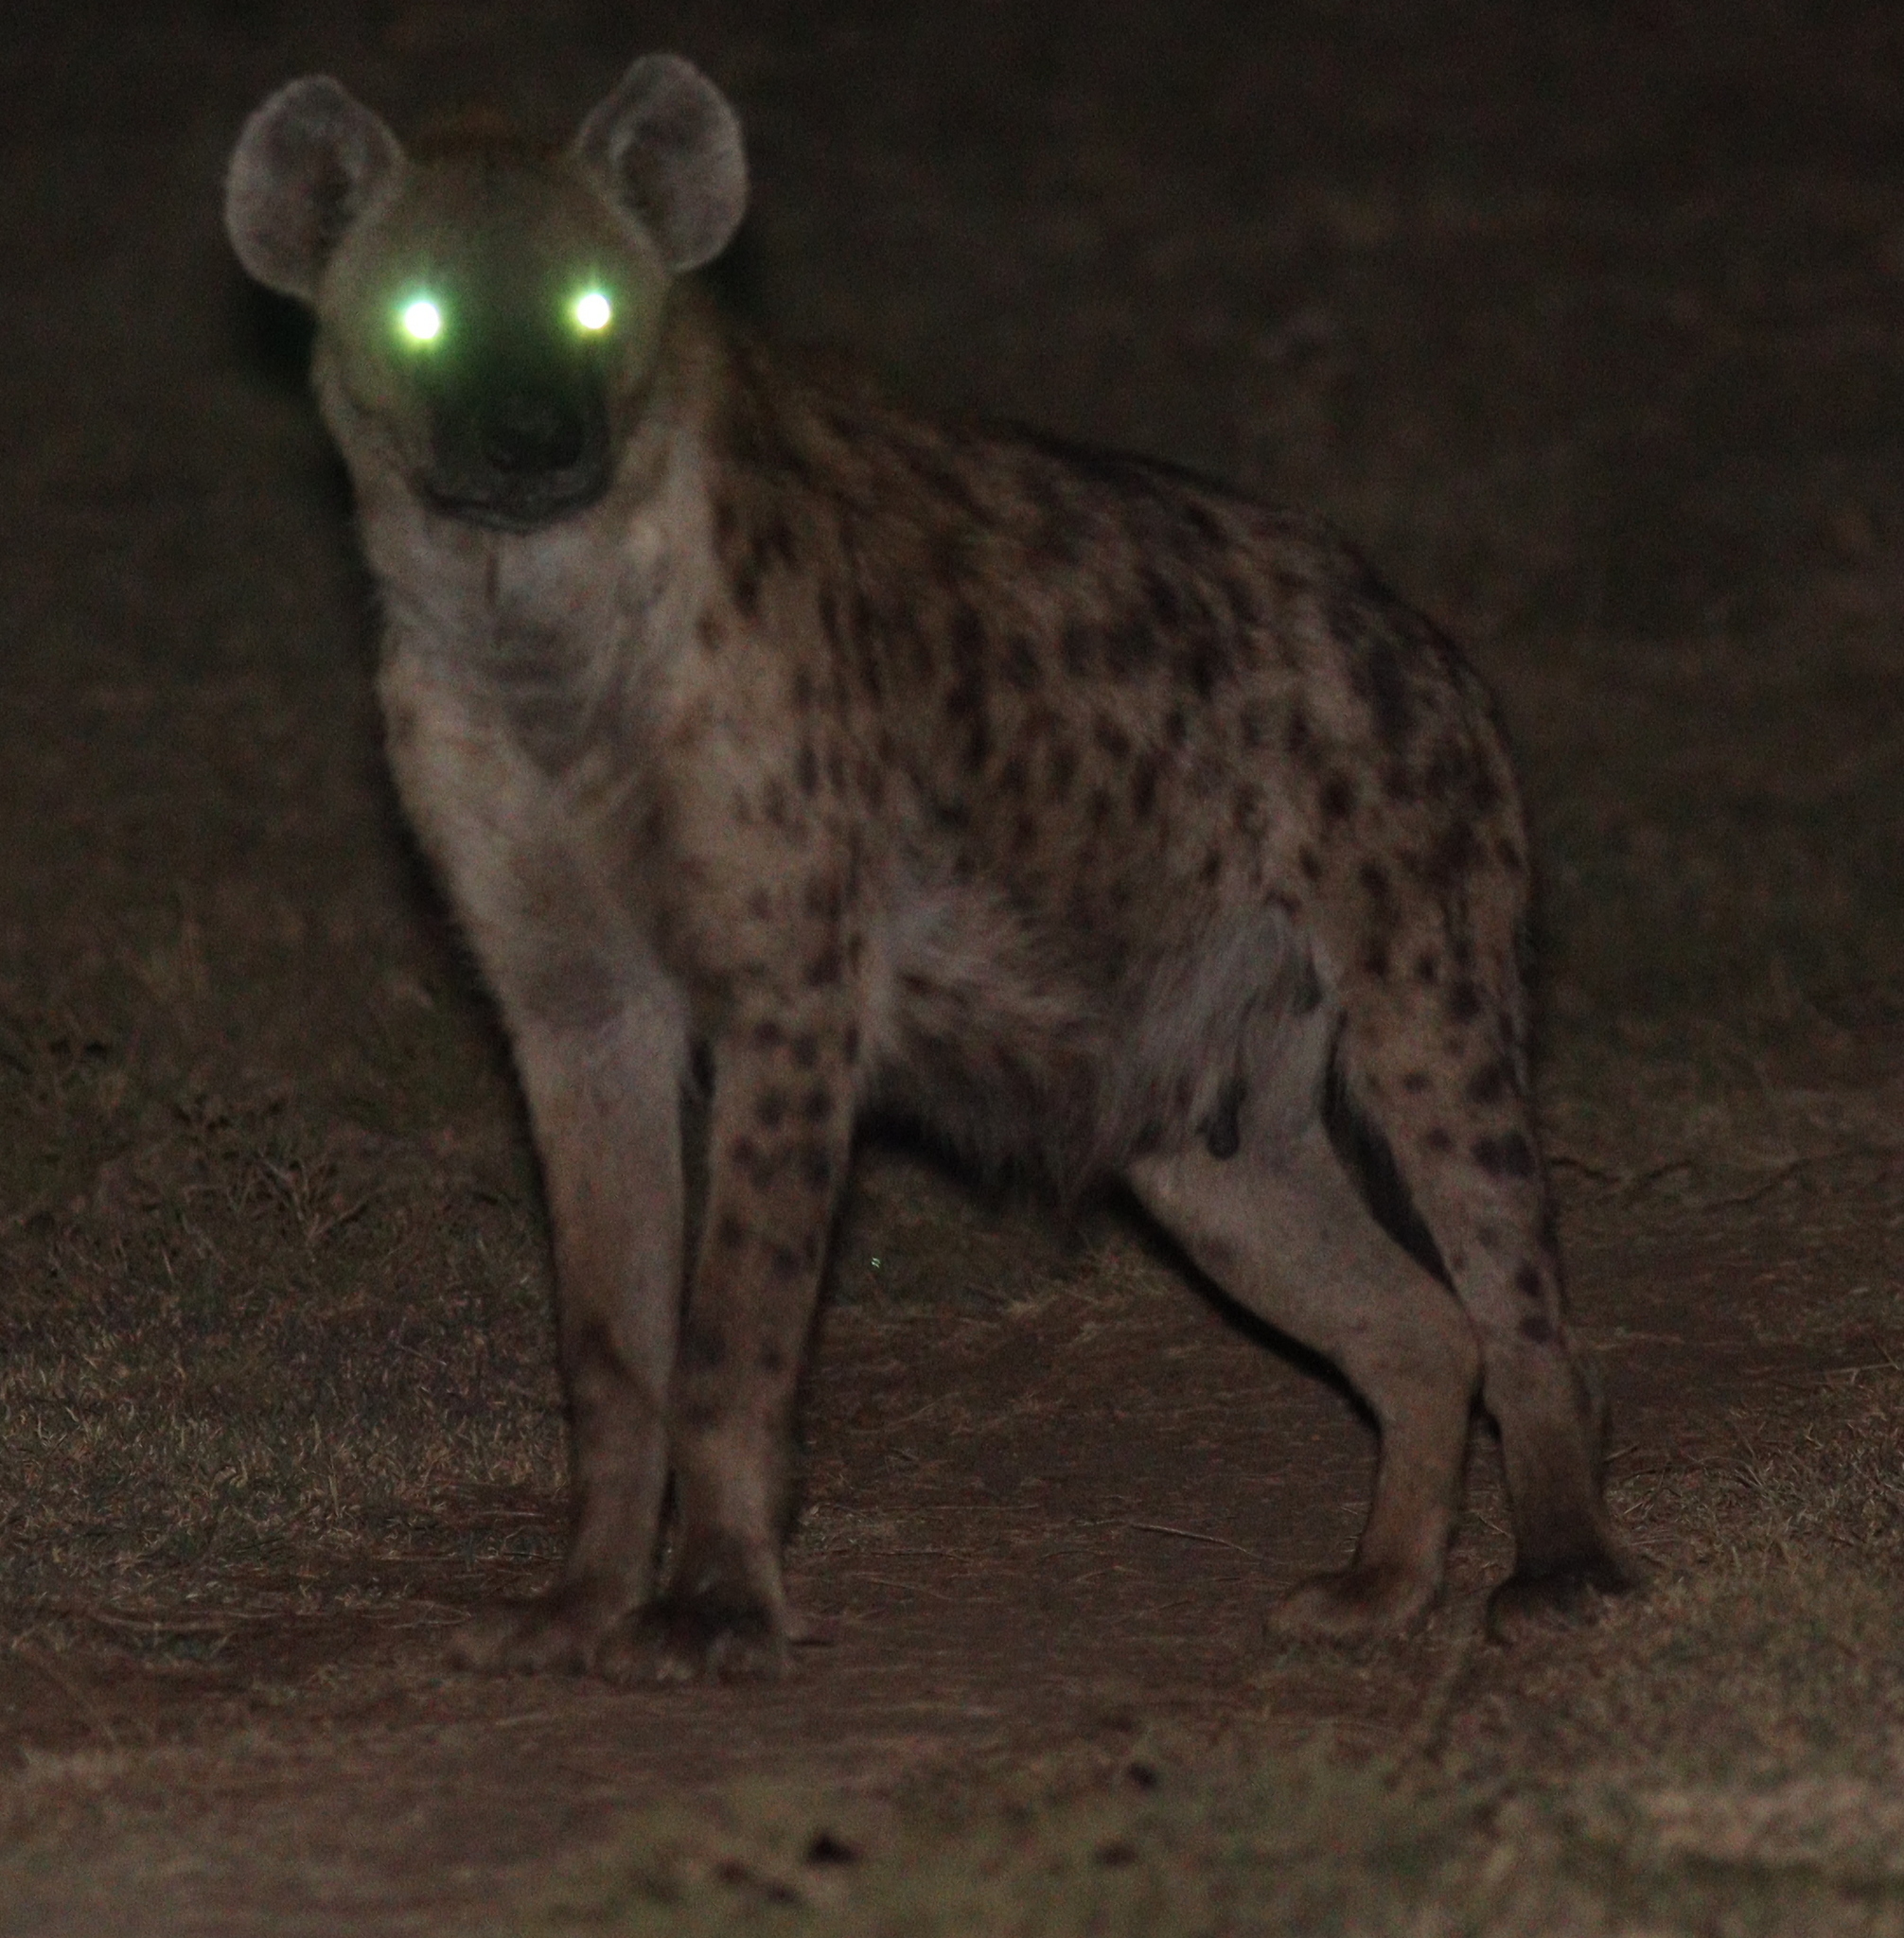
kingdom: Animalia
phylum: Chordata
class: Mammalia
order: Carnivora
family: Hyaenidae
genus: Crocuta
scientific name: Crocuta crocuta
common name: Spotted hyaena
